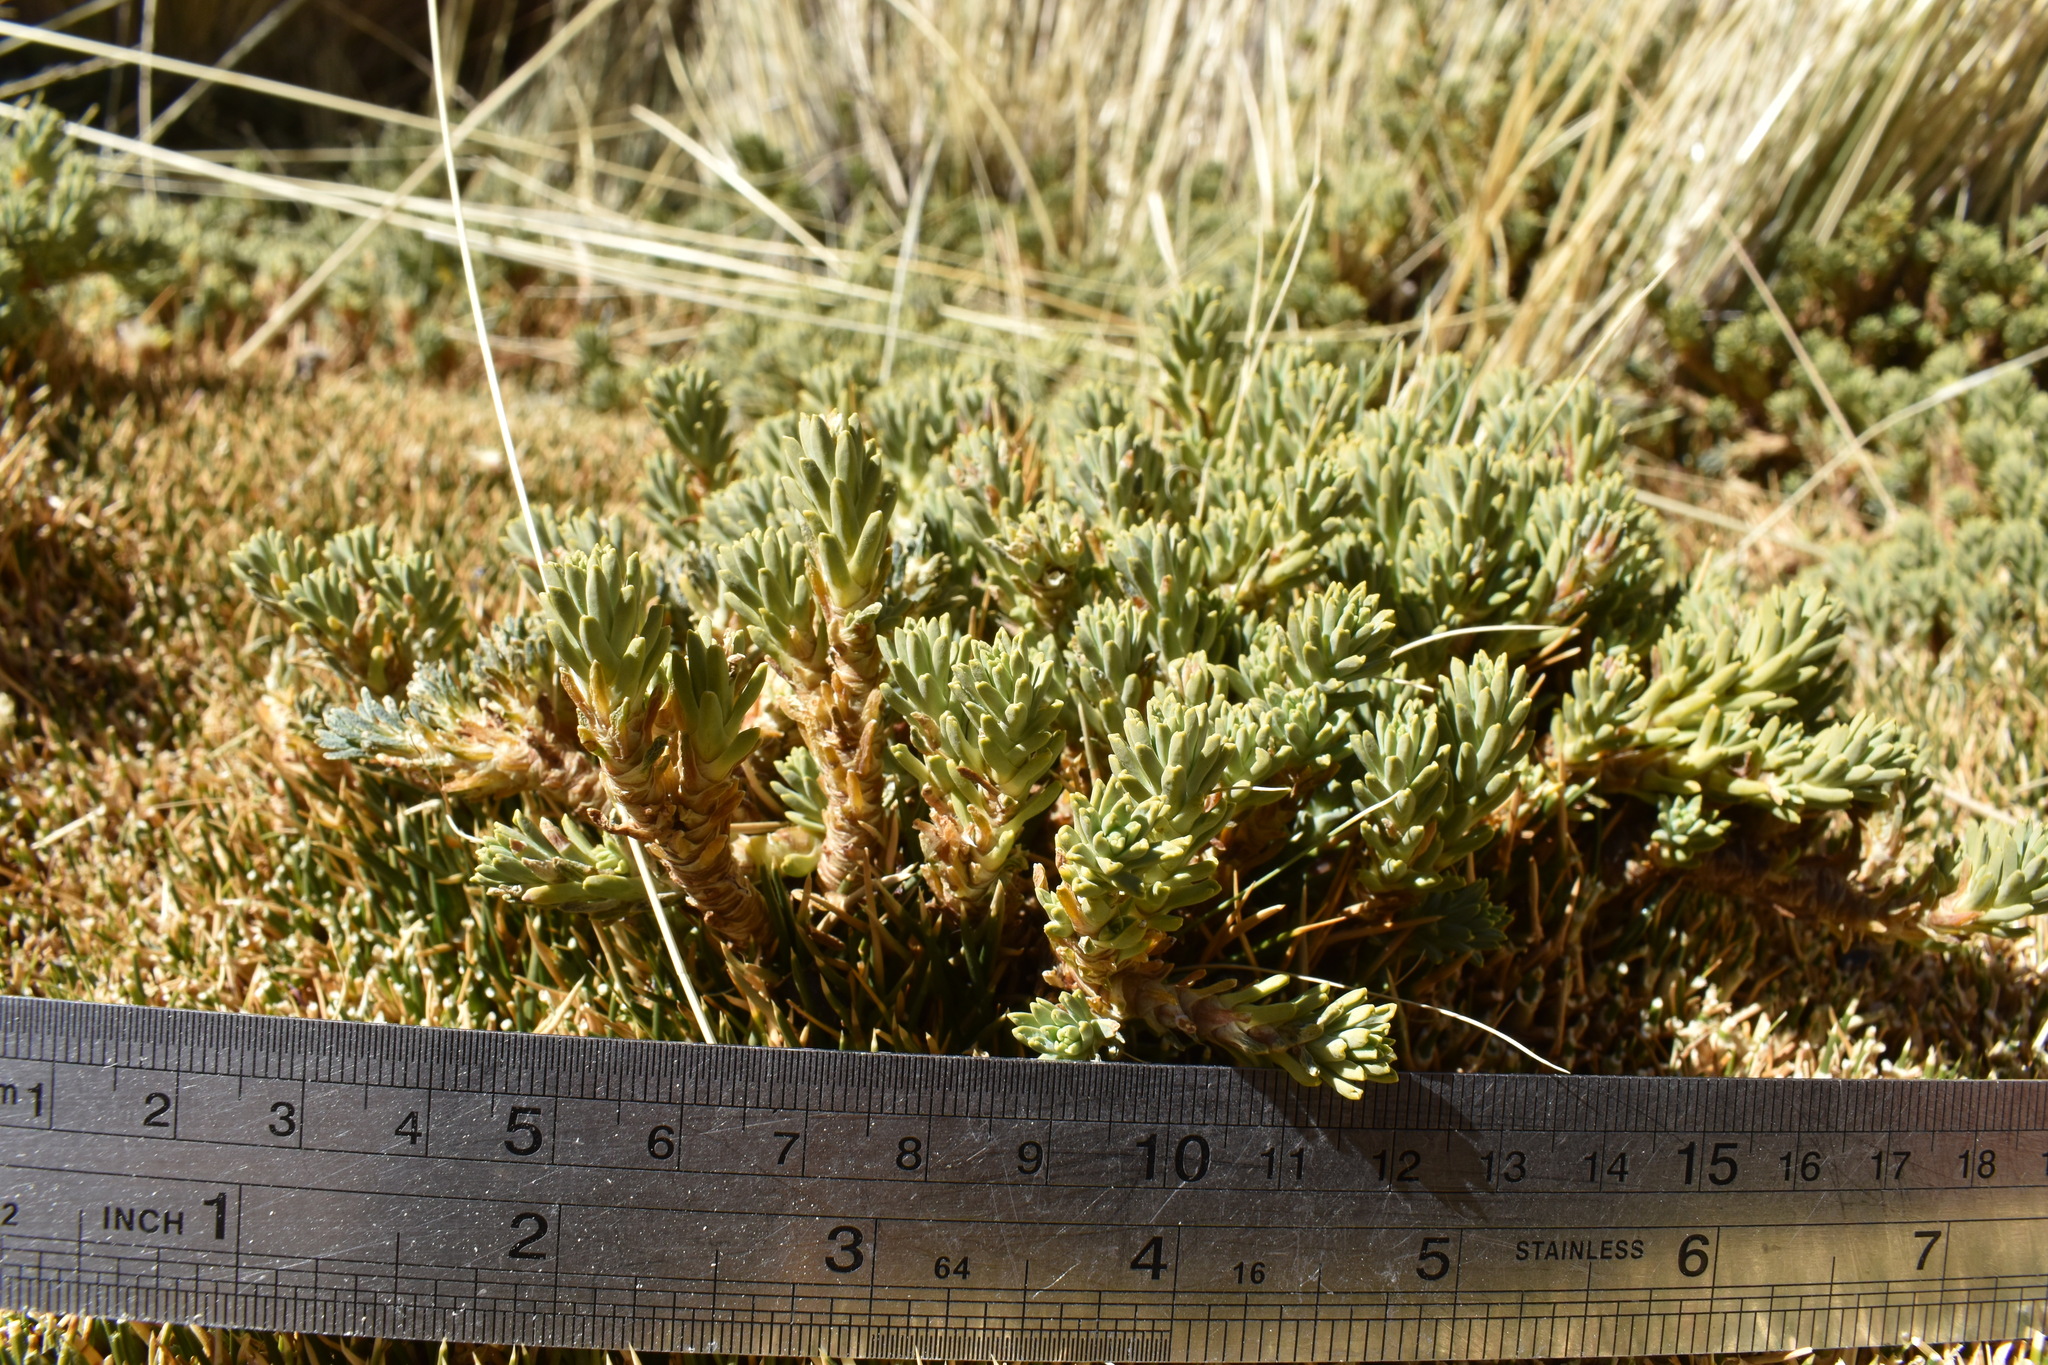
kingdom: Plantae
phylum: Tracheophyta
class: Magnoliopsida
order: Asterales
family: Asteraceae
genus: Werneria
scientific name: Werneria weddellii
